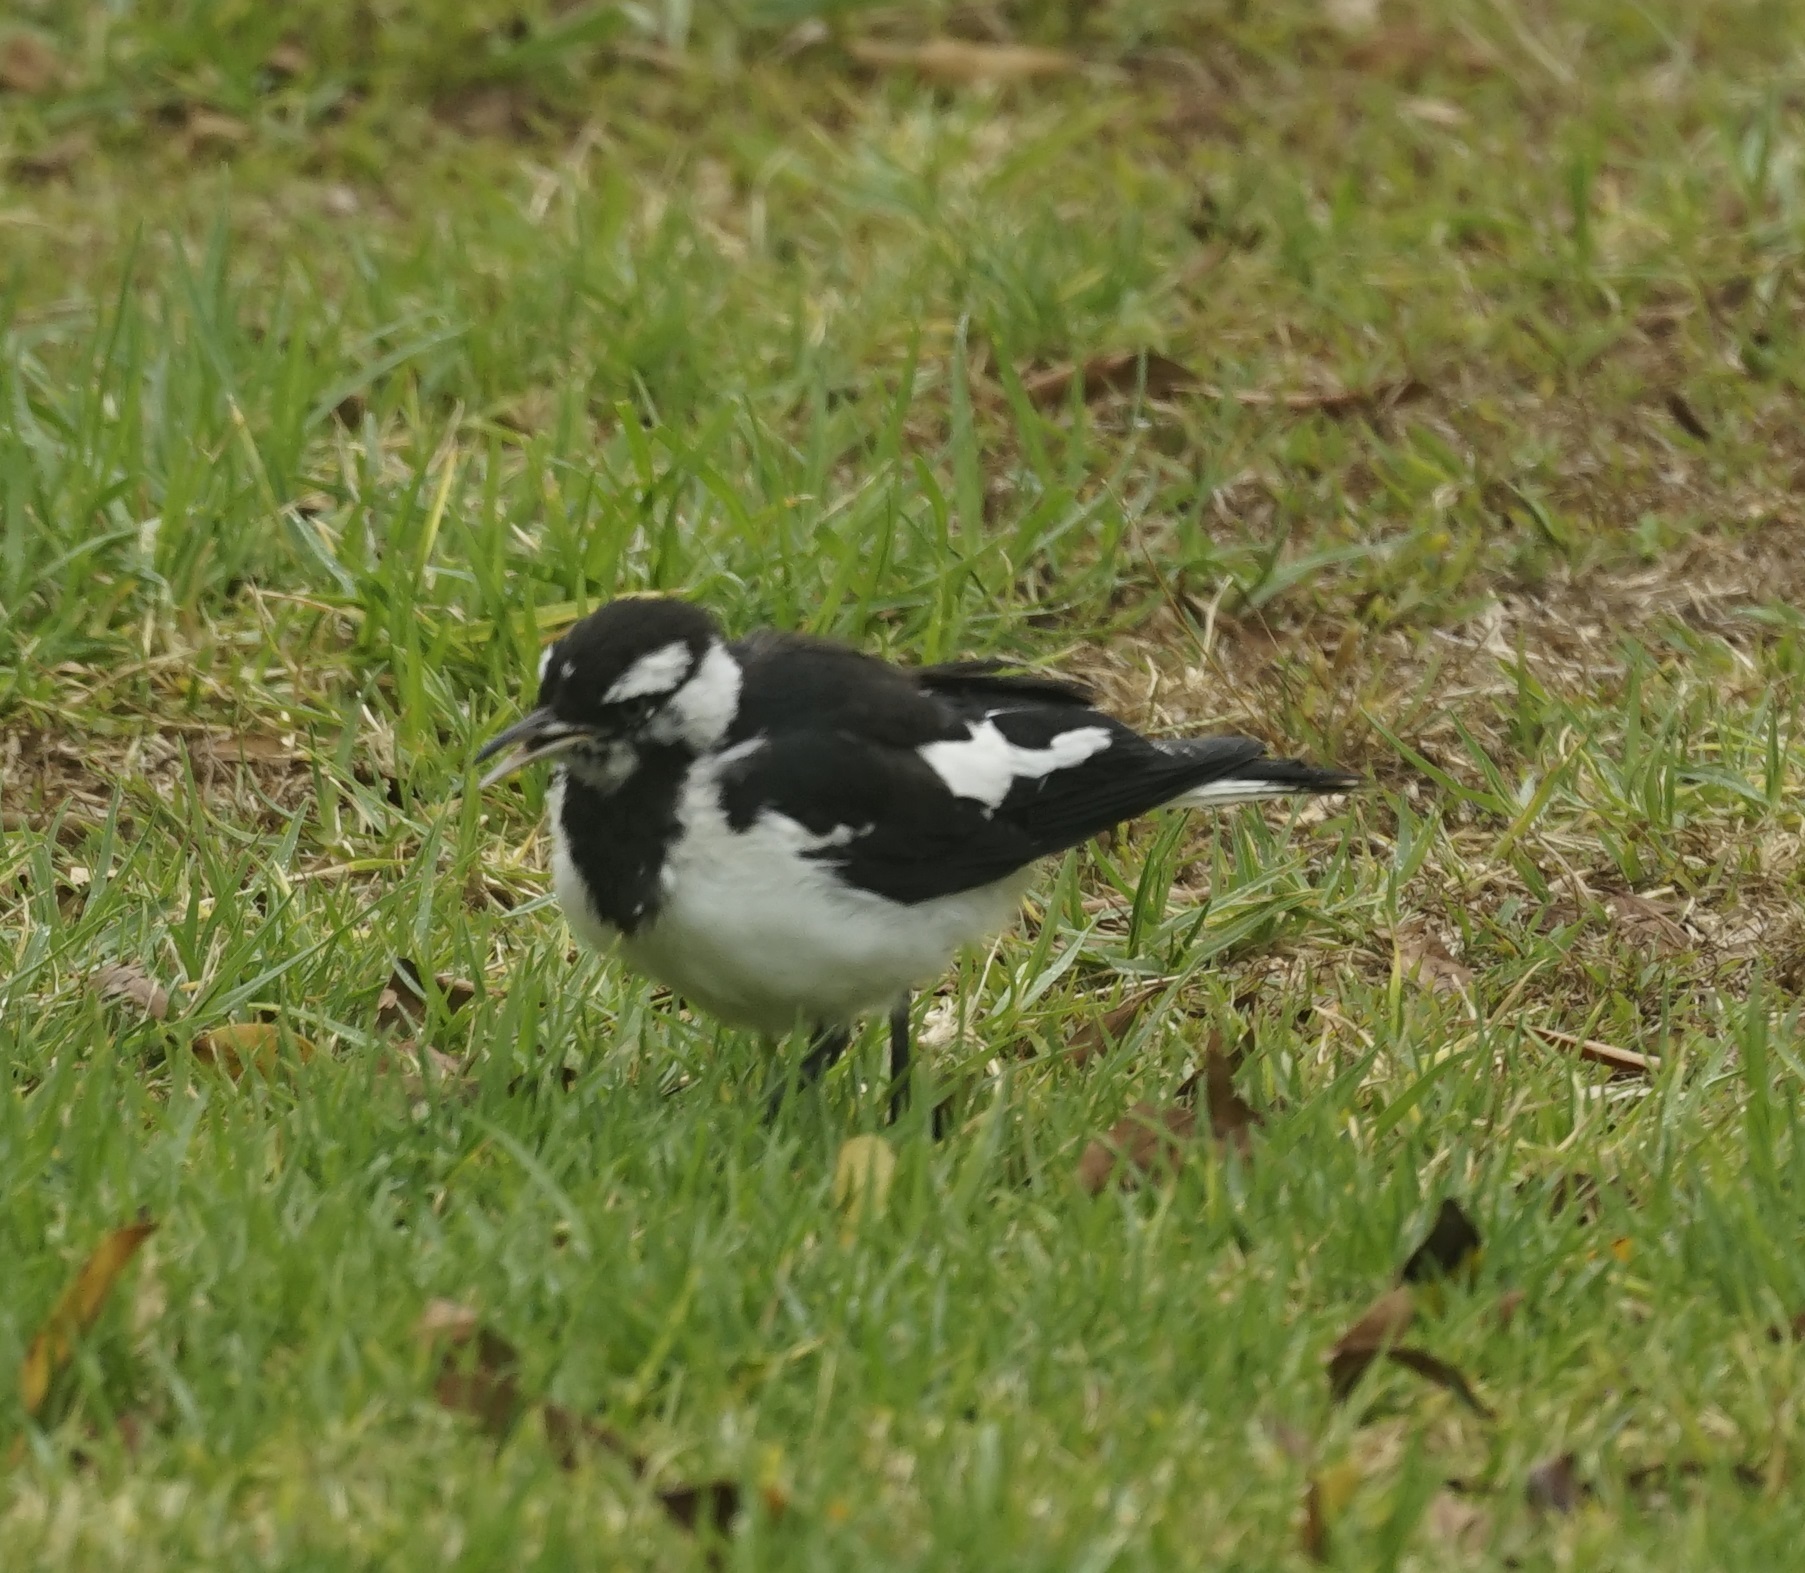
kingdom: Animalia
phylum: Chordata
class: Aves
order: Passeriformes
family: Monarchidae
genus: Grallina
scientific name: Grallina cyanoleuca
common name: Magpie-lark
